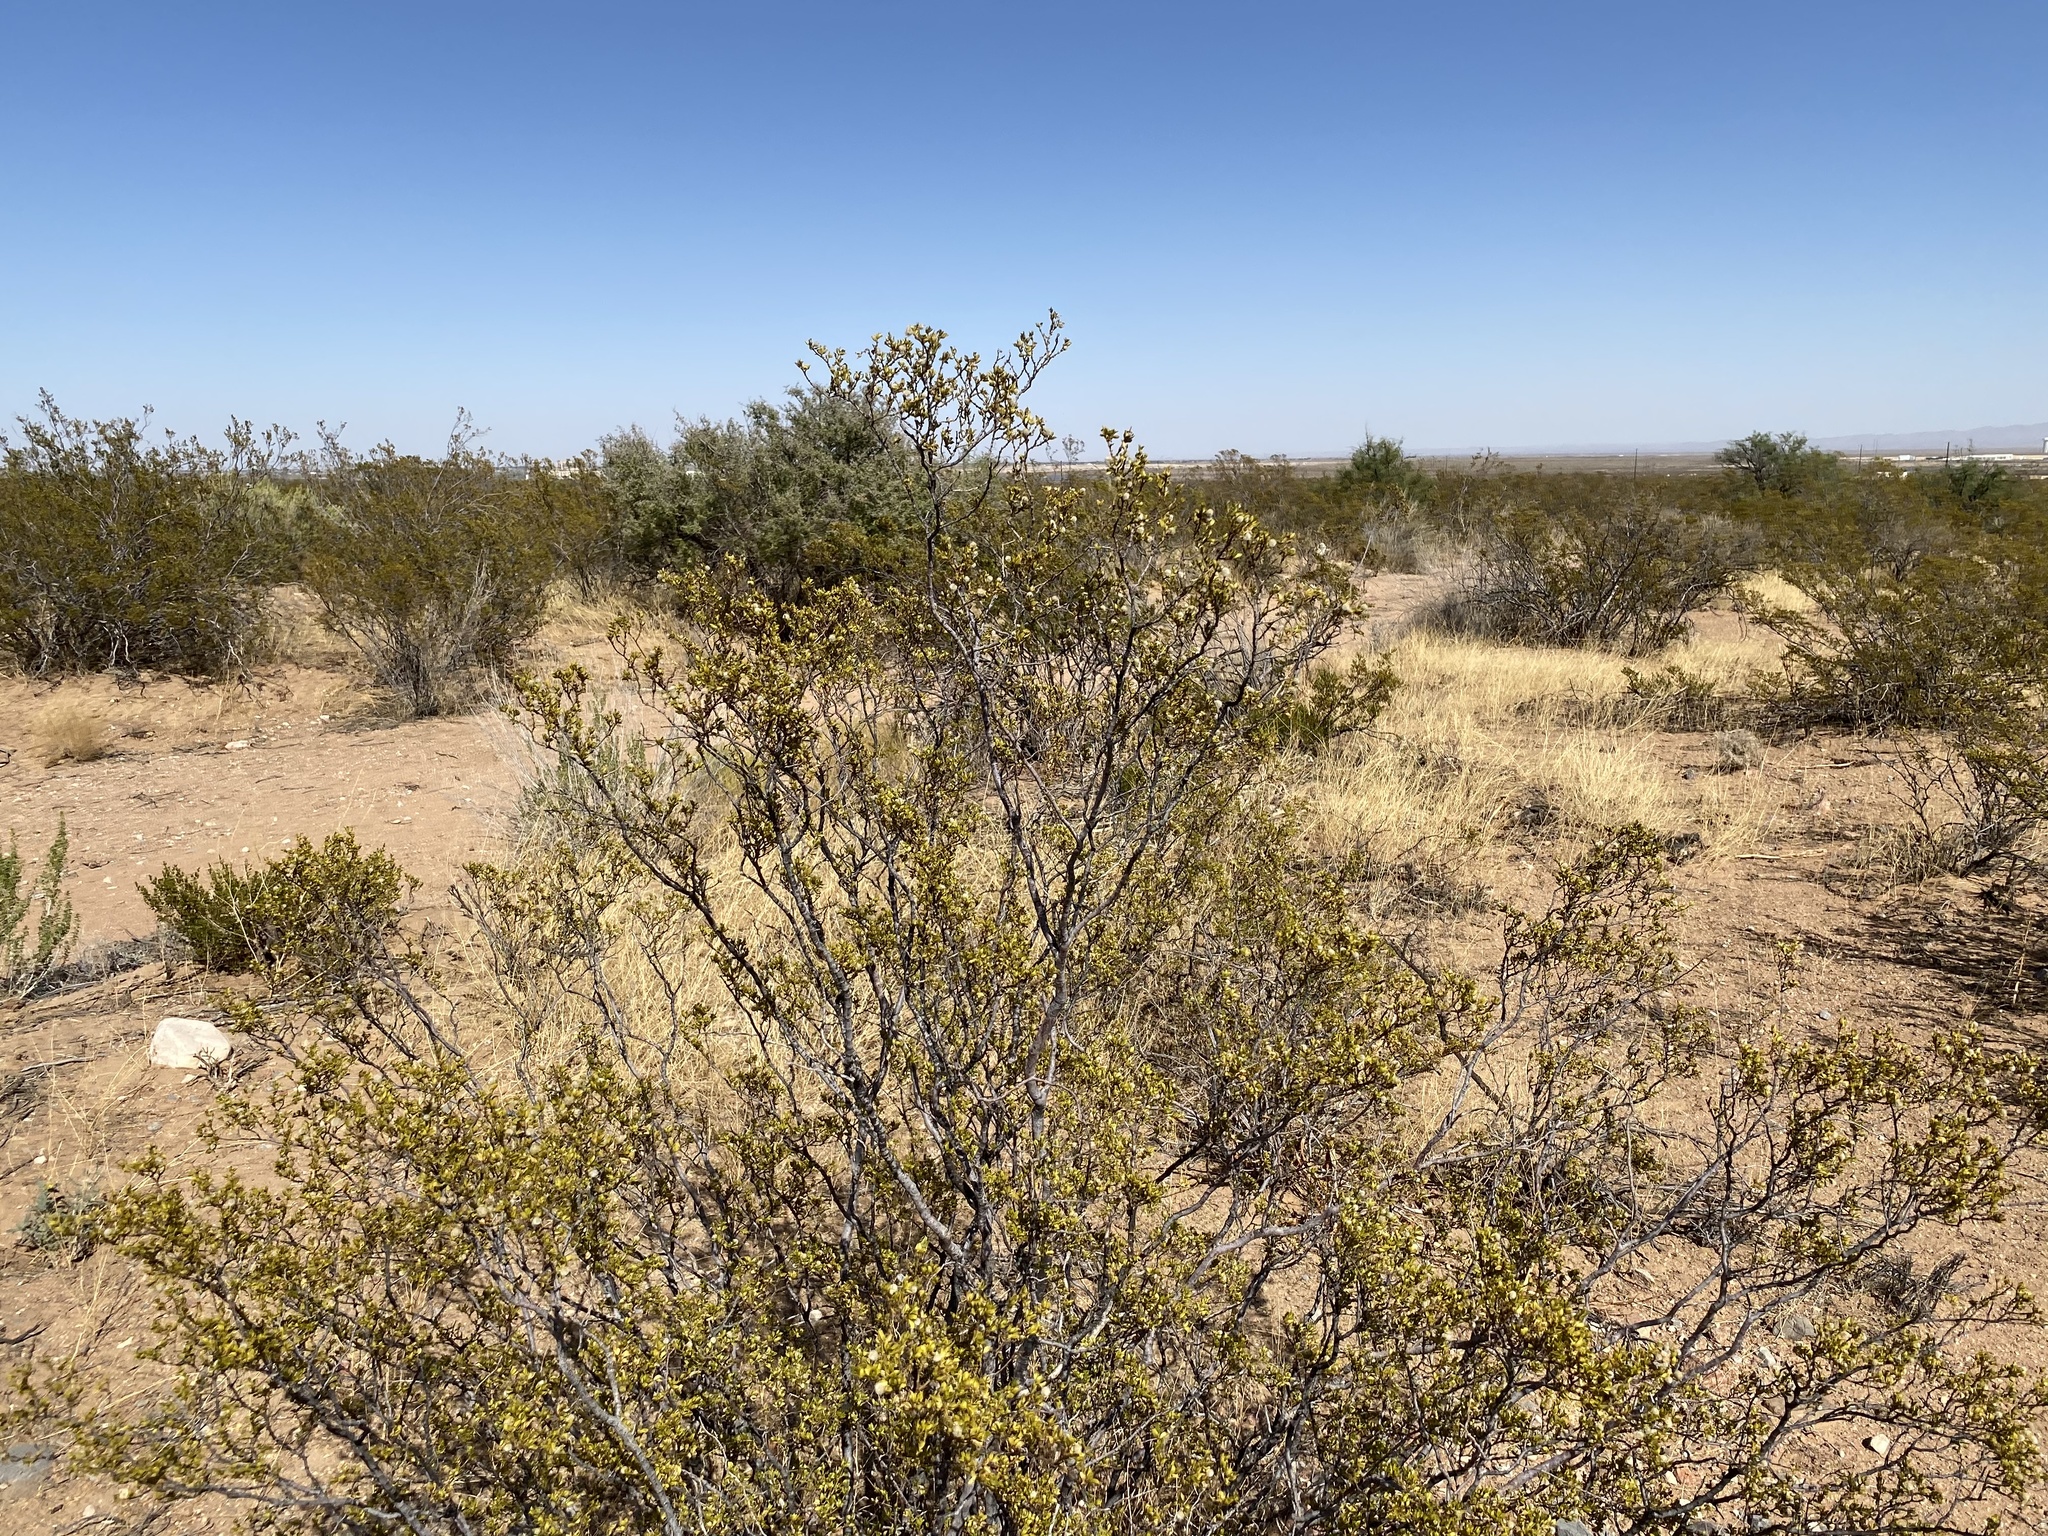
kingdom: Plantae
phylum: Tracheophyta
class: Magnoliopsida
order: Zygophyllales
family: Zygophyllaceae
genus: Larrea
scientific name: Larrea tridentata
